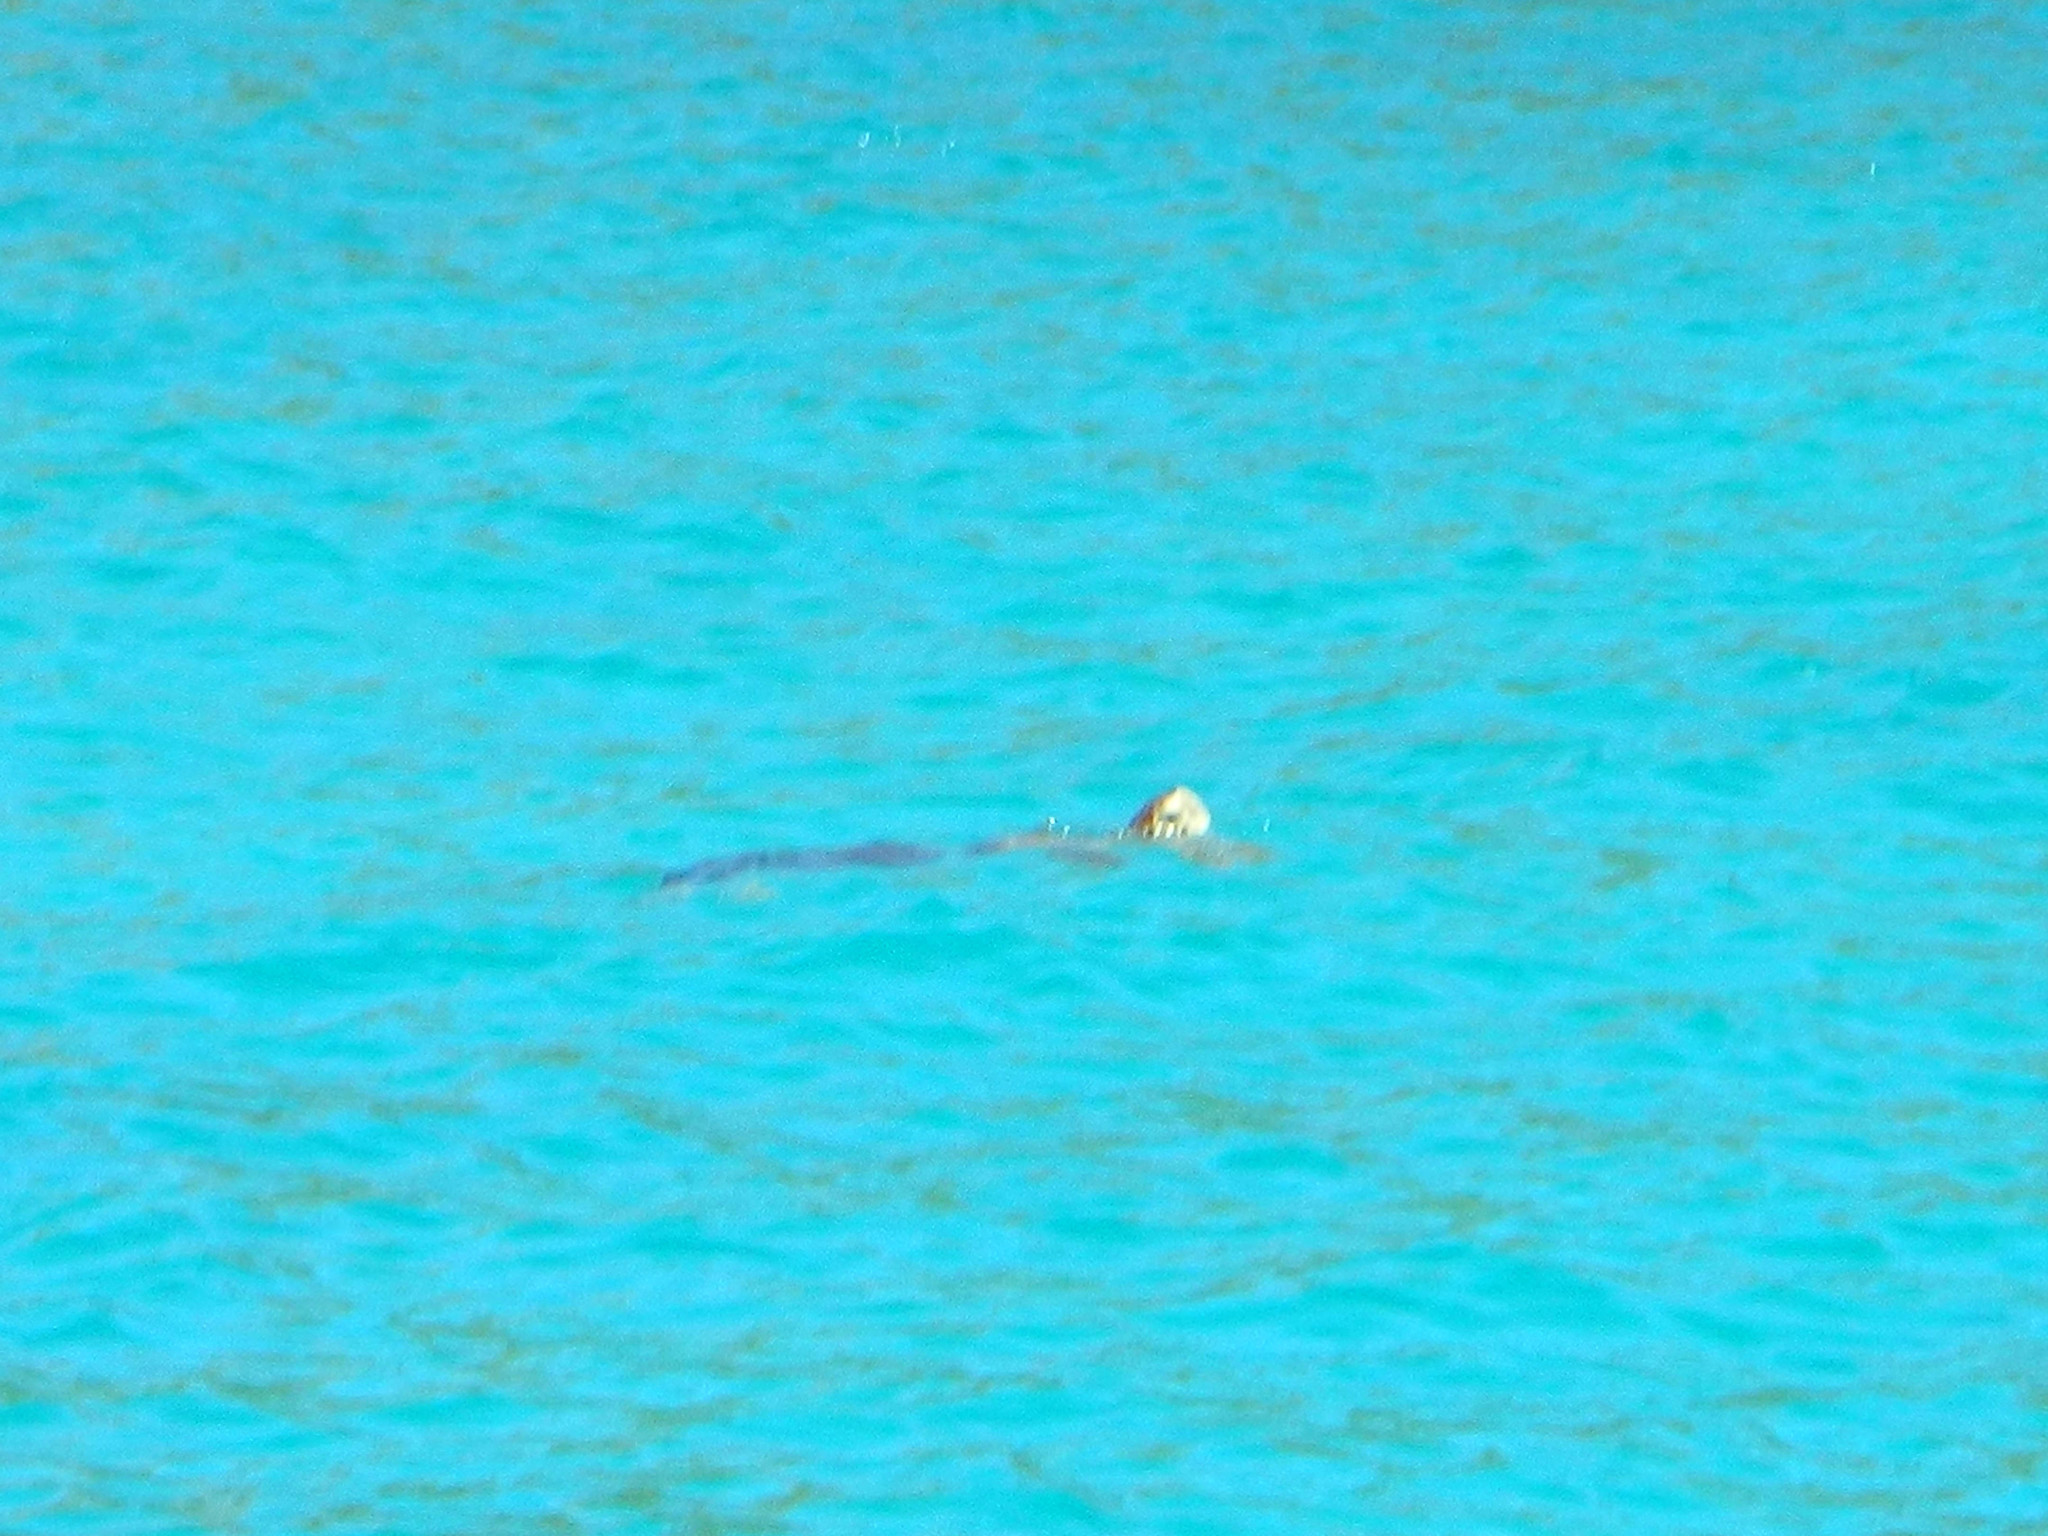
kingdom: Animalia
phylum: Chordata
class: Testudines
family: Cheloniidae
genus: Chelonia
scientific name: Chelonia mydas
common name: Green turtle
